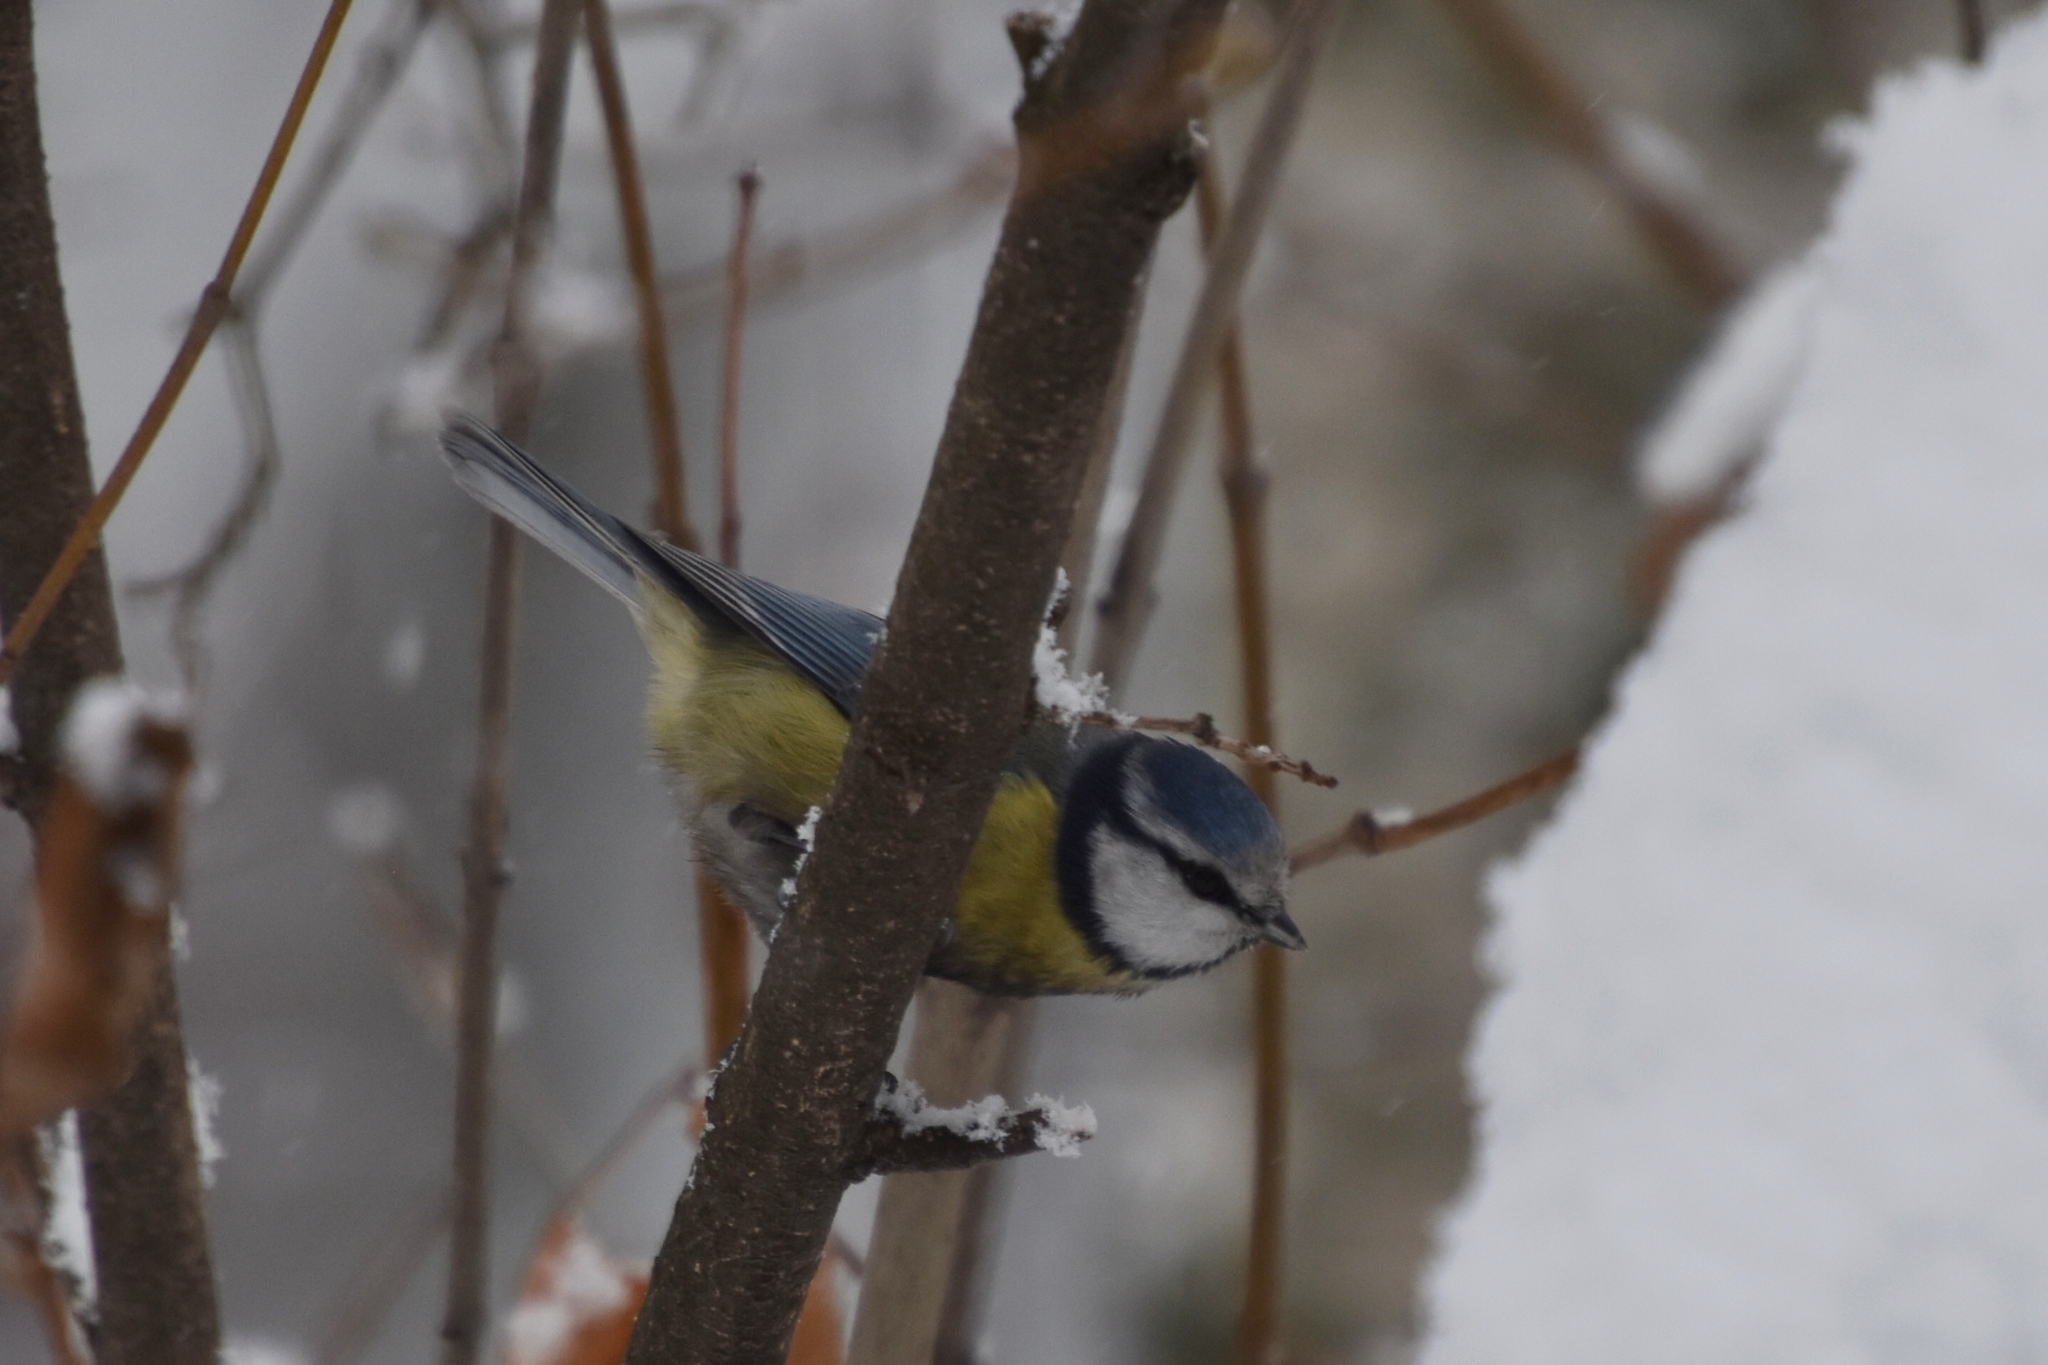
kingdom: Animalia
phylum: Chordata
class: Aves
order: Passeriformes
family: Paridae
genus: Cyanistes
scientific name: Cyanistes caeruleus
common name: Eurasian blue tit
